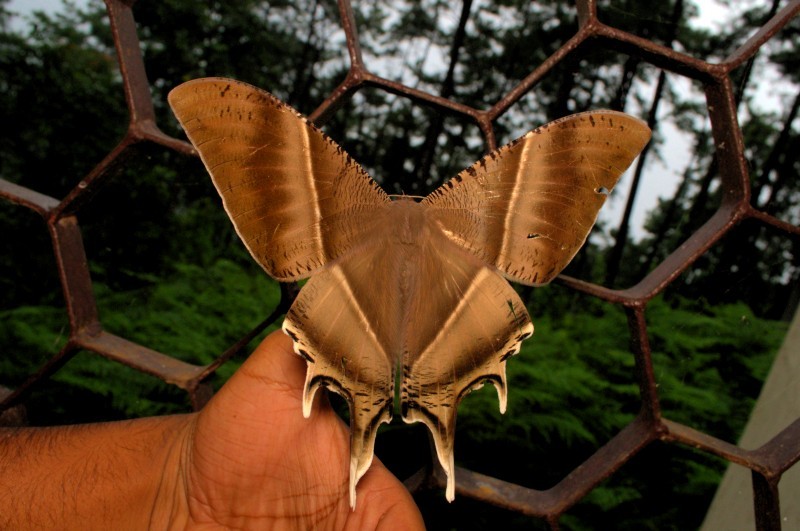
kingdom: Animalia
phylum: Arthropoda
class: Insecta
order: Lepidoptera
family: Uraniidae
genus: Lyssa
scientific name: Lyssa zampa
